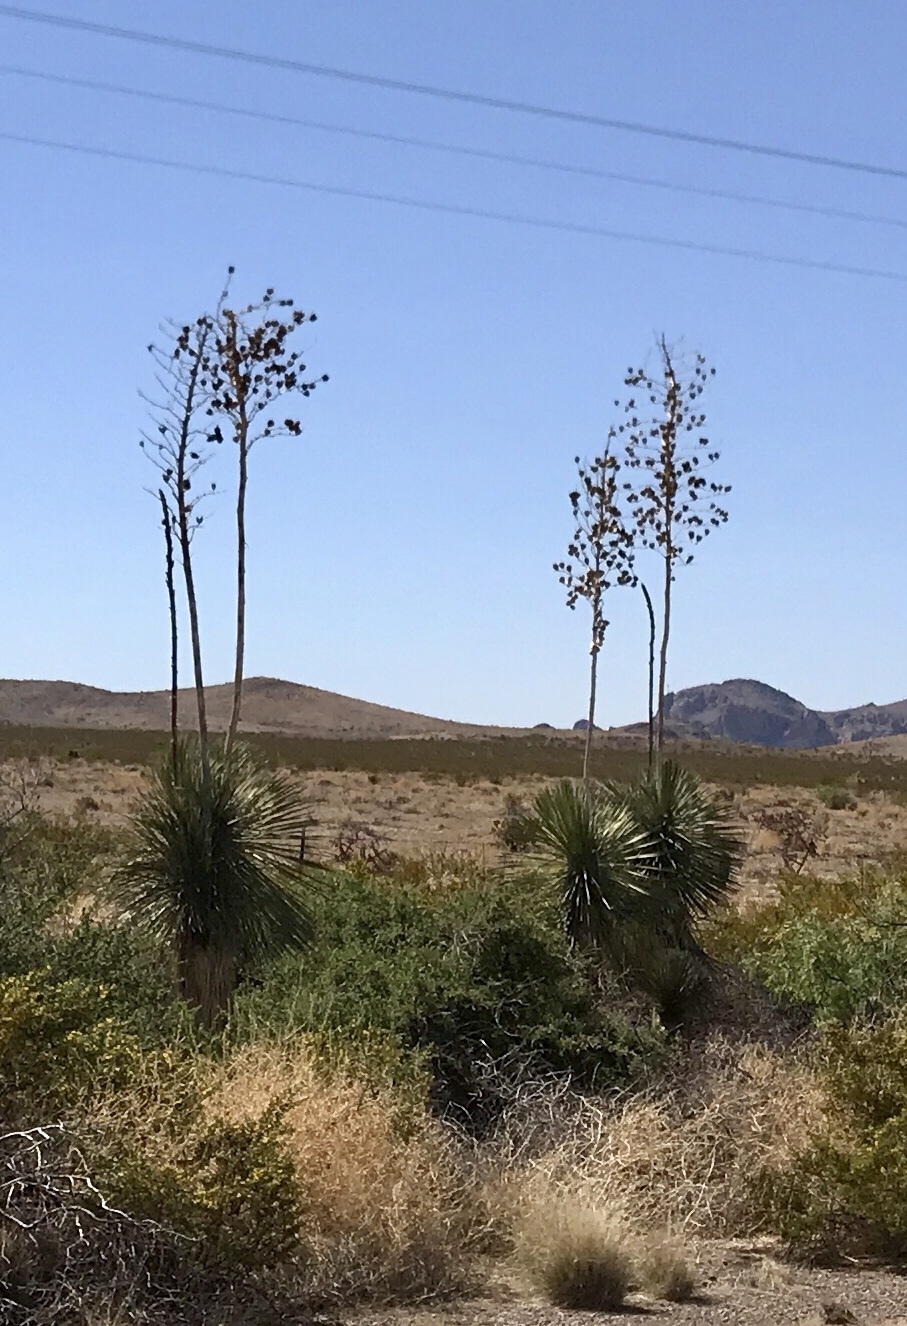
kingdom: Plantae
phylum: Tracheophyta
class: Liliopsida
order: Asparagales
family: Asparagaceae
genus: Yucca
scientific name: Yucca elata
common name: Palmella
